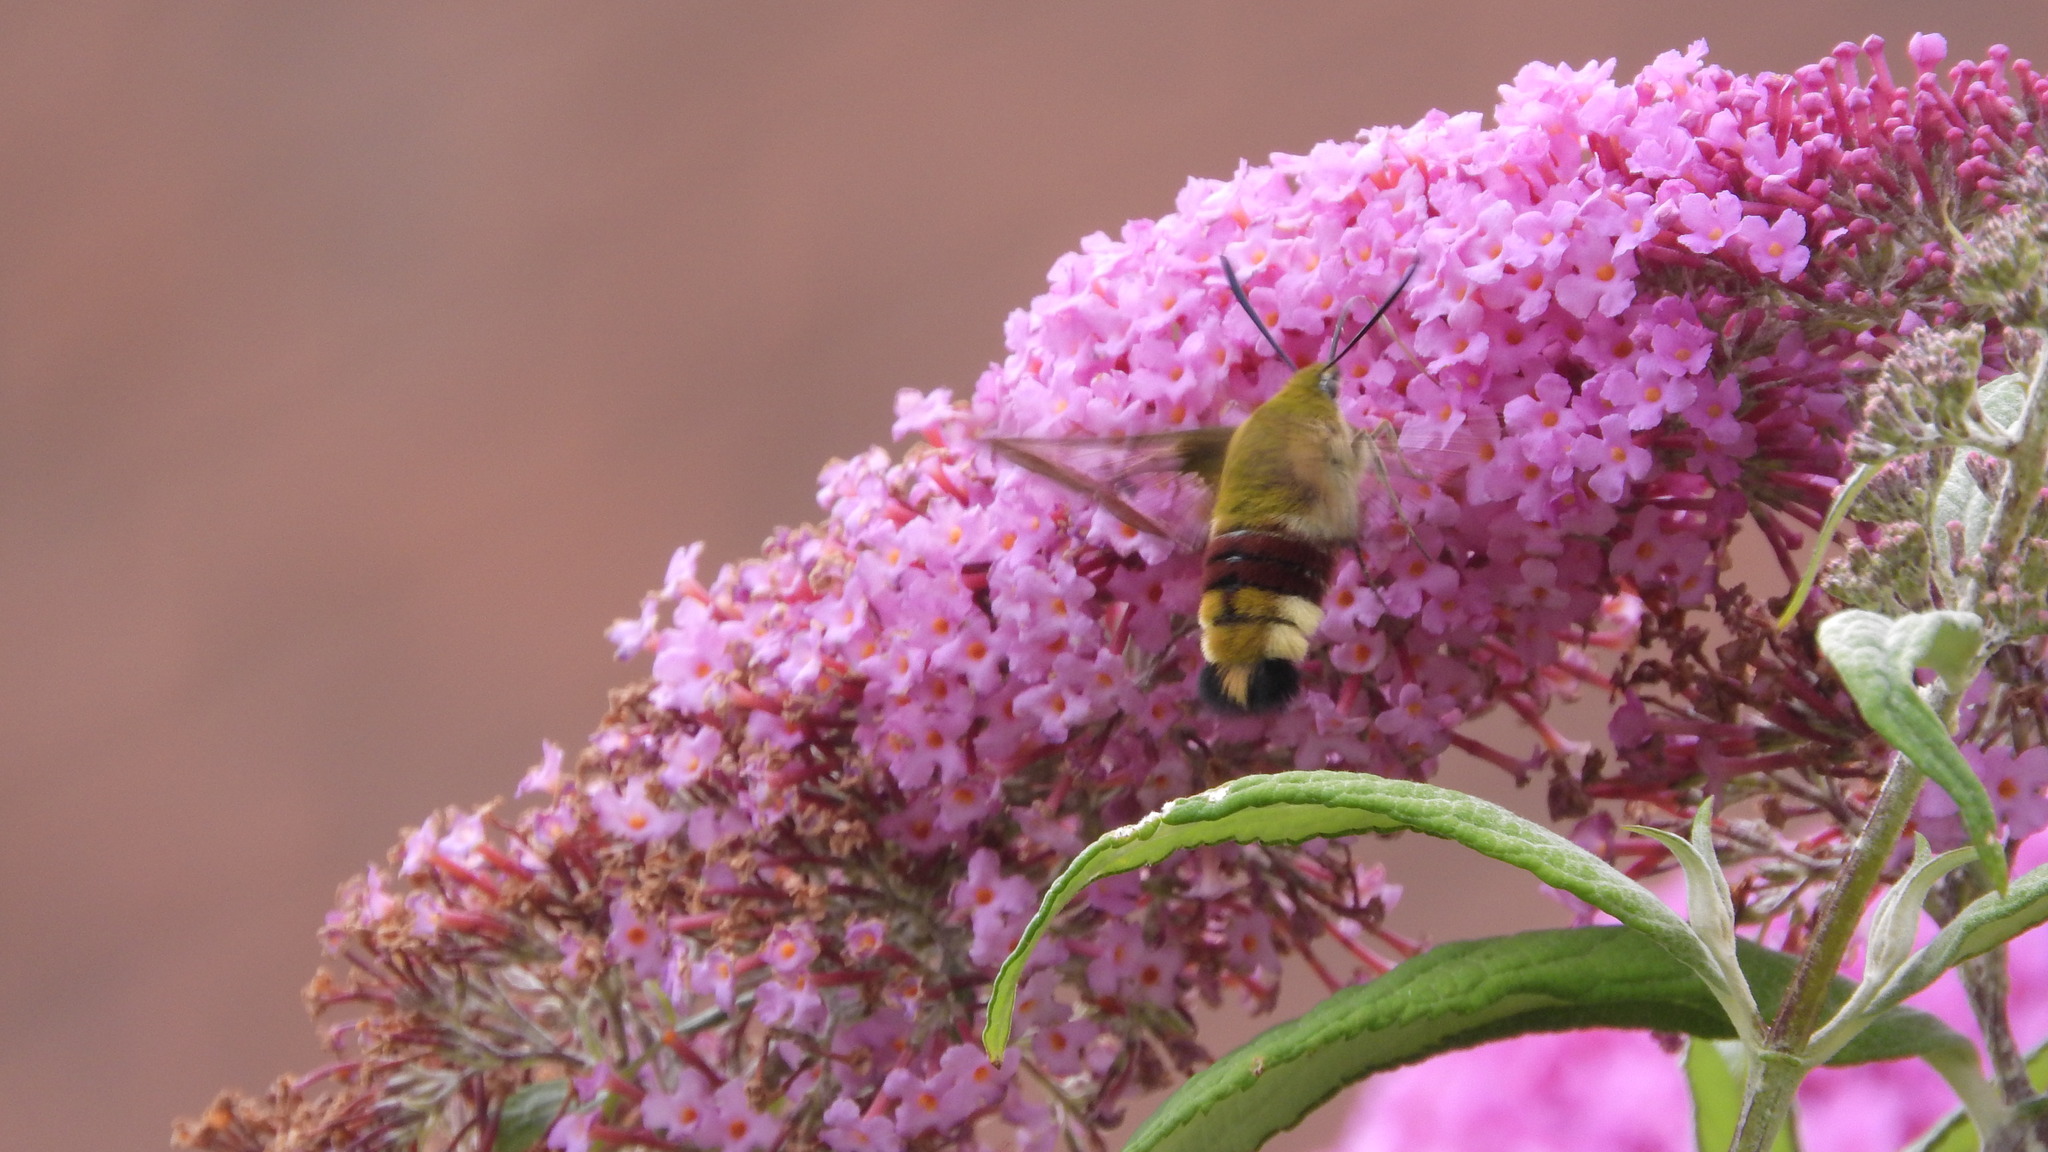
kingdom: Animalia
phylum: Arthropoda
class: Insecta
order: Lepidoptera
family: Sphingidae
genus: Hemaris
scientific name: Hemaris fuciformis
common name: Broad-bordered bee hawk-moth
